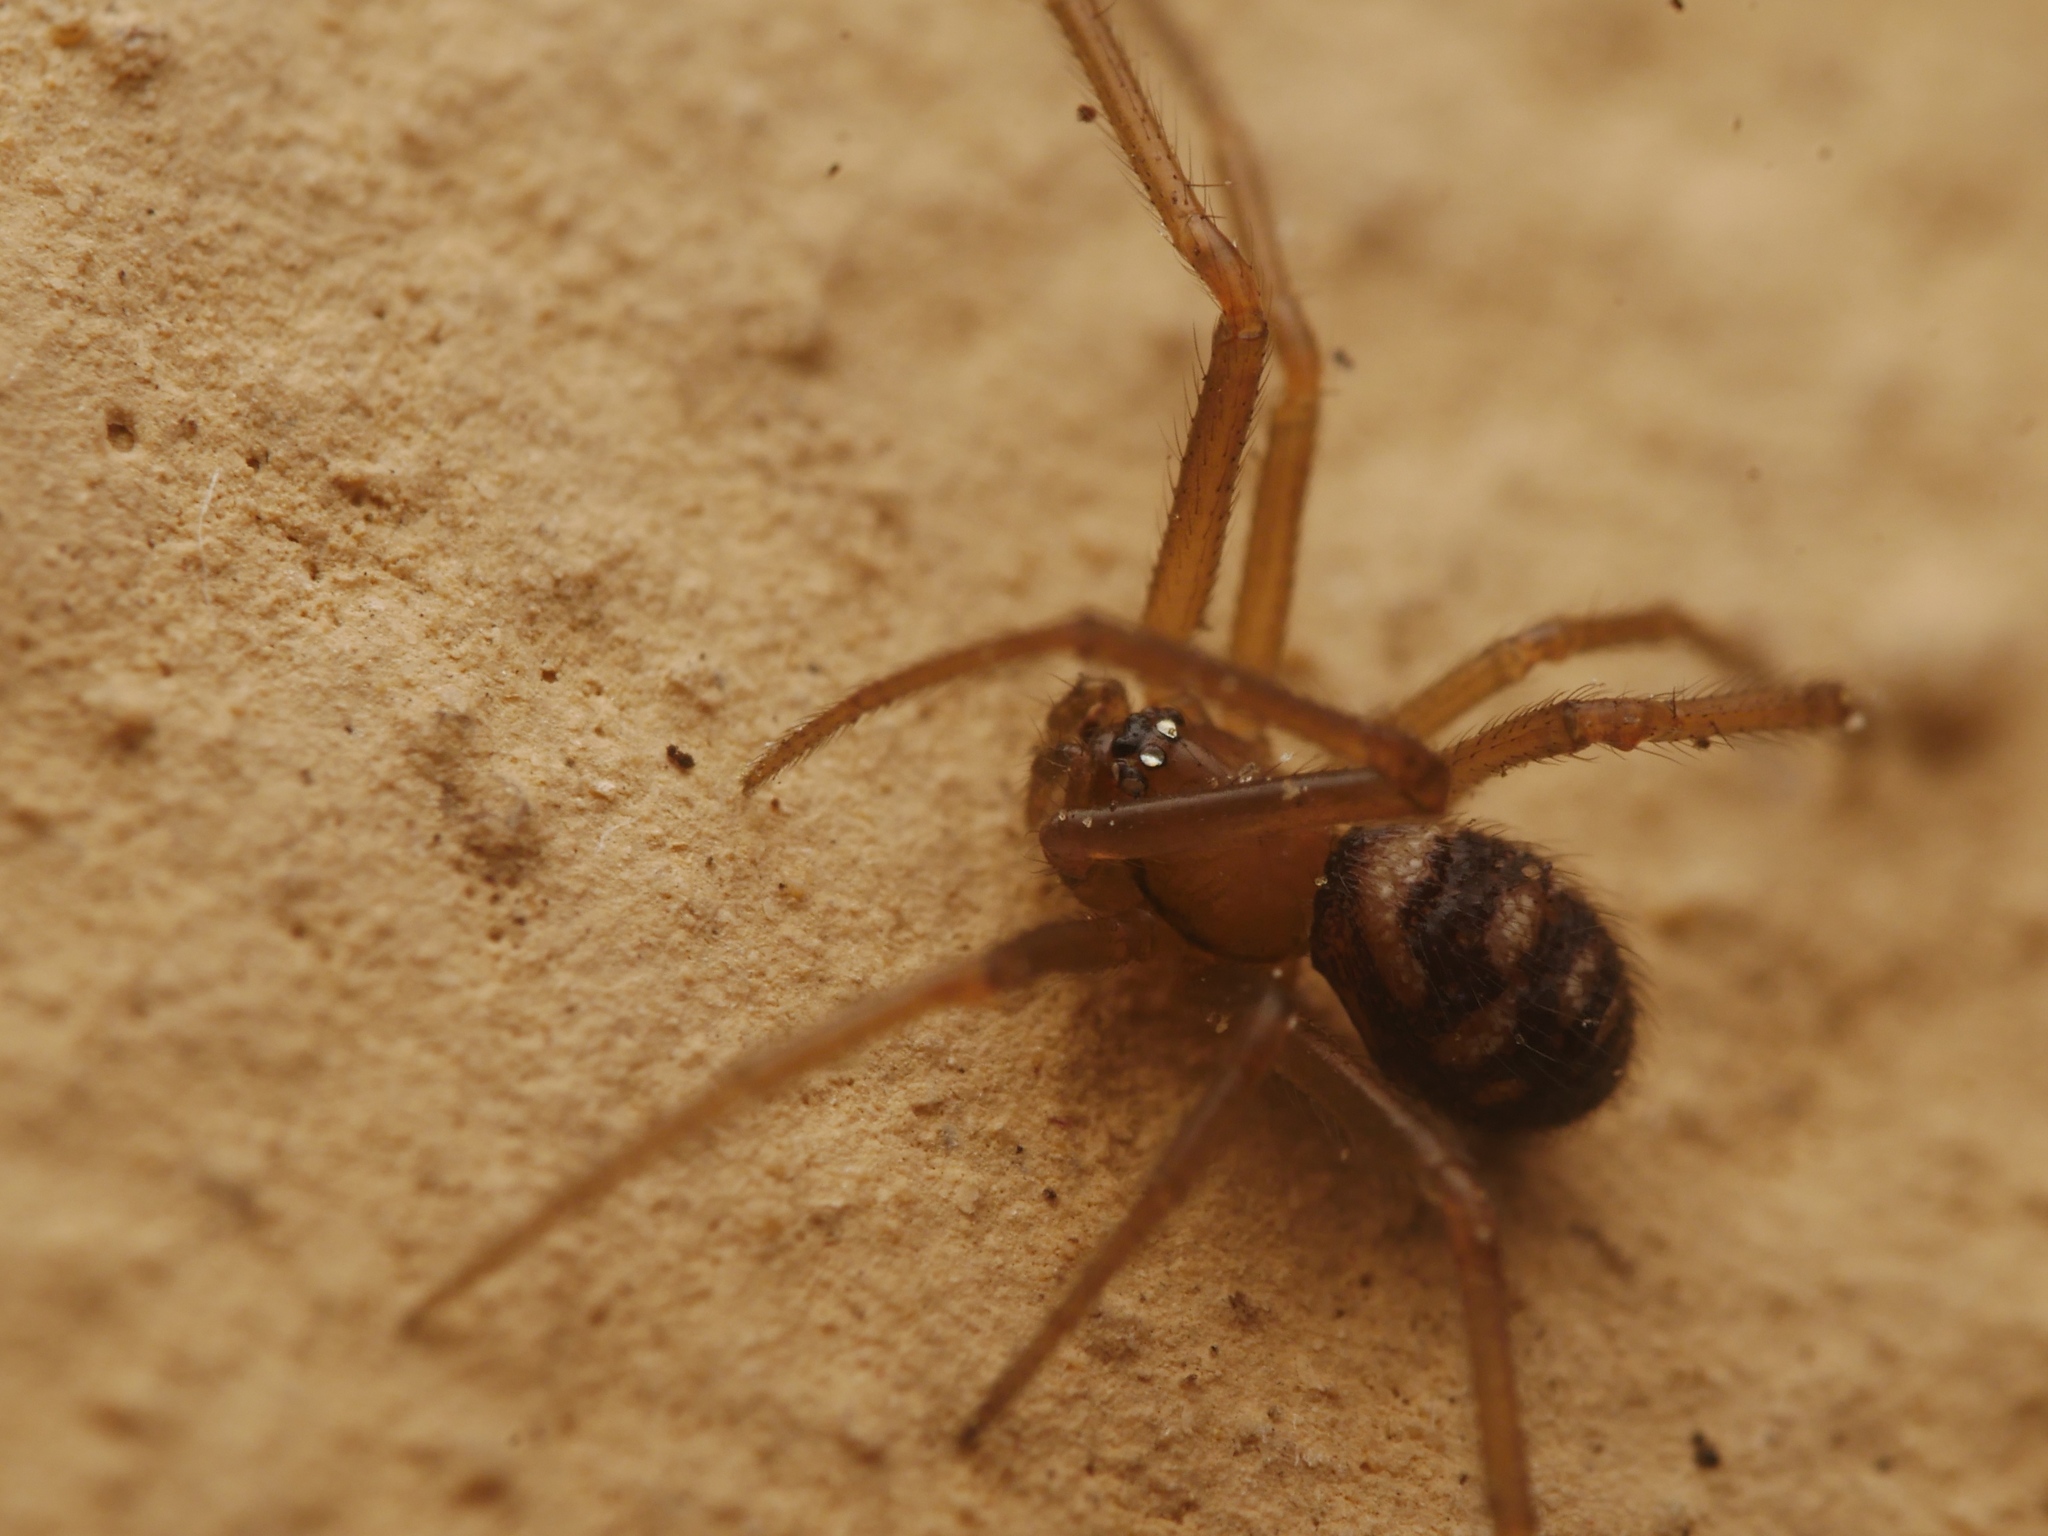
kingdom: Animalia
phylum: Arthropoda
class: Arachnida
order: Araneae
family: Theridiidae
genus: Steatoda
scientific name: Steatoda grossa
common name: False black widow
